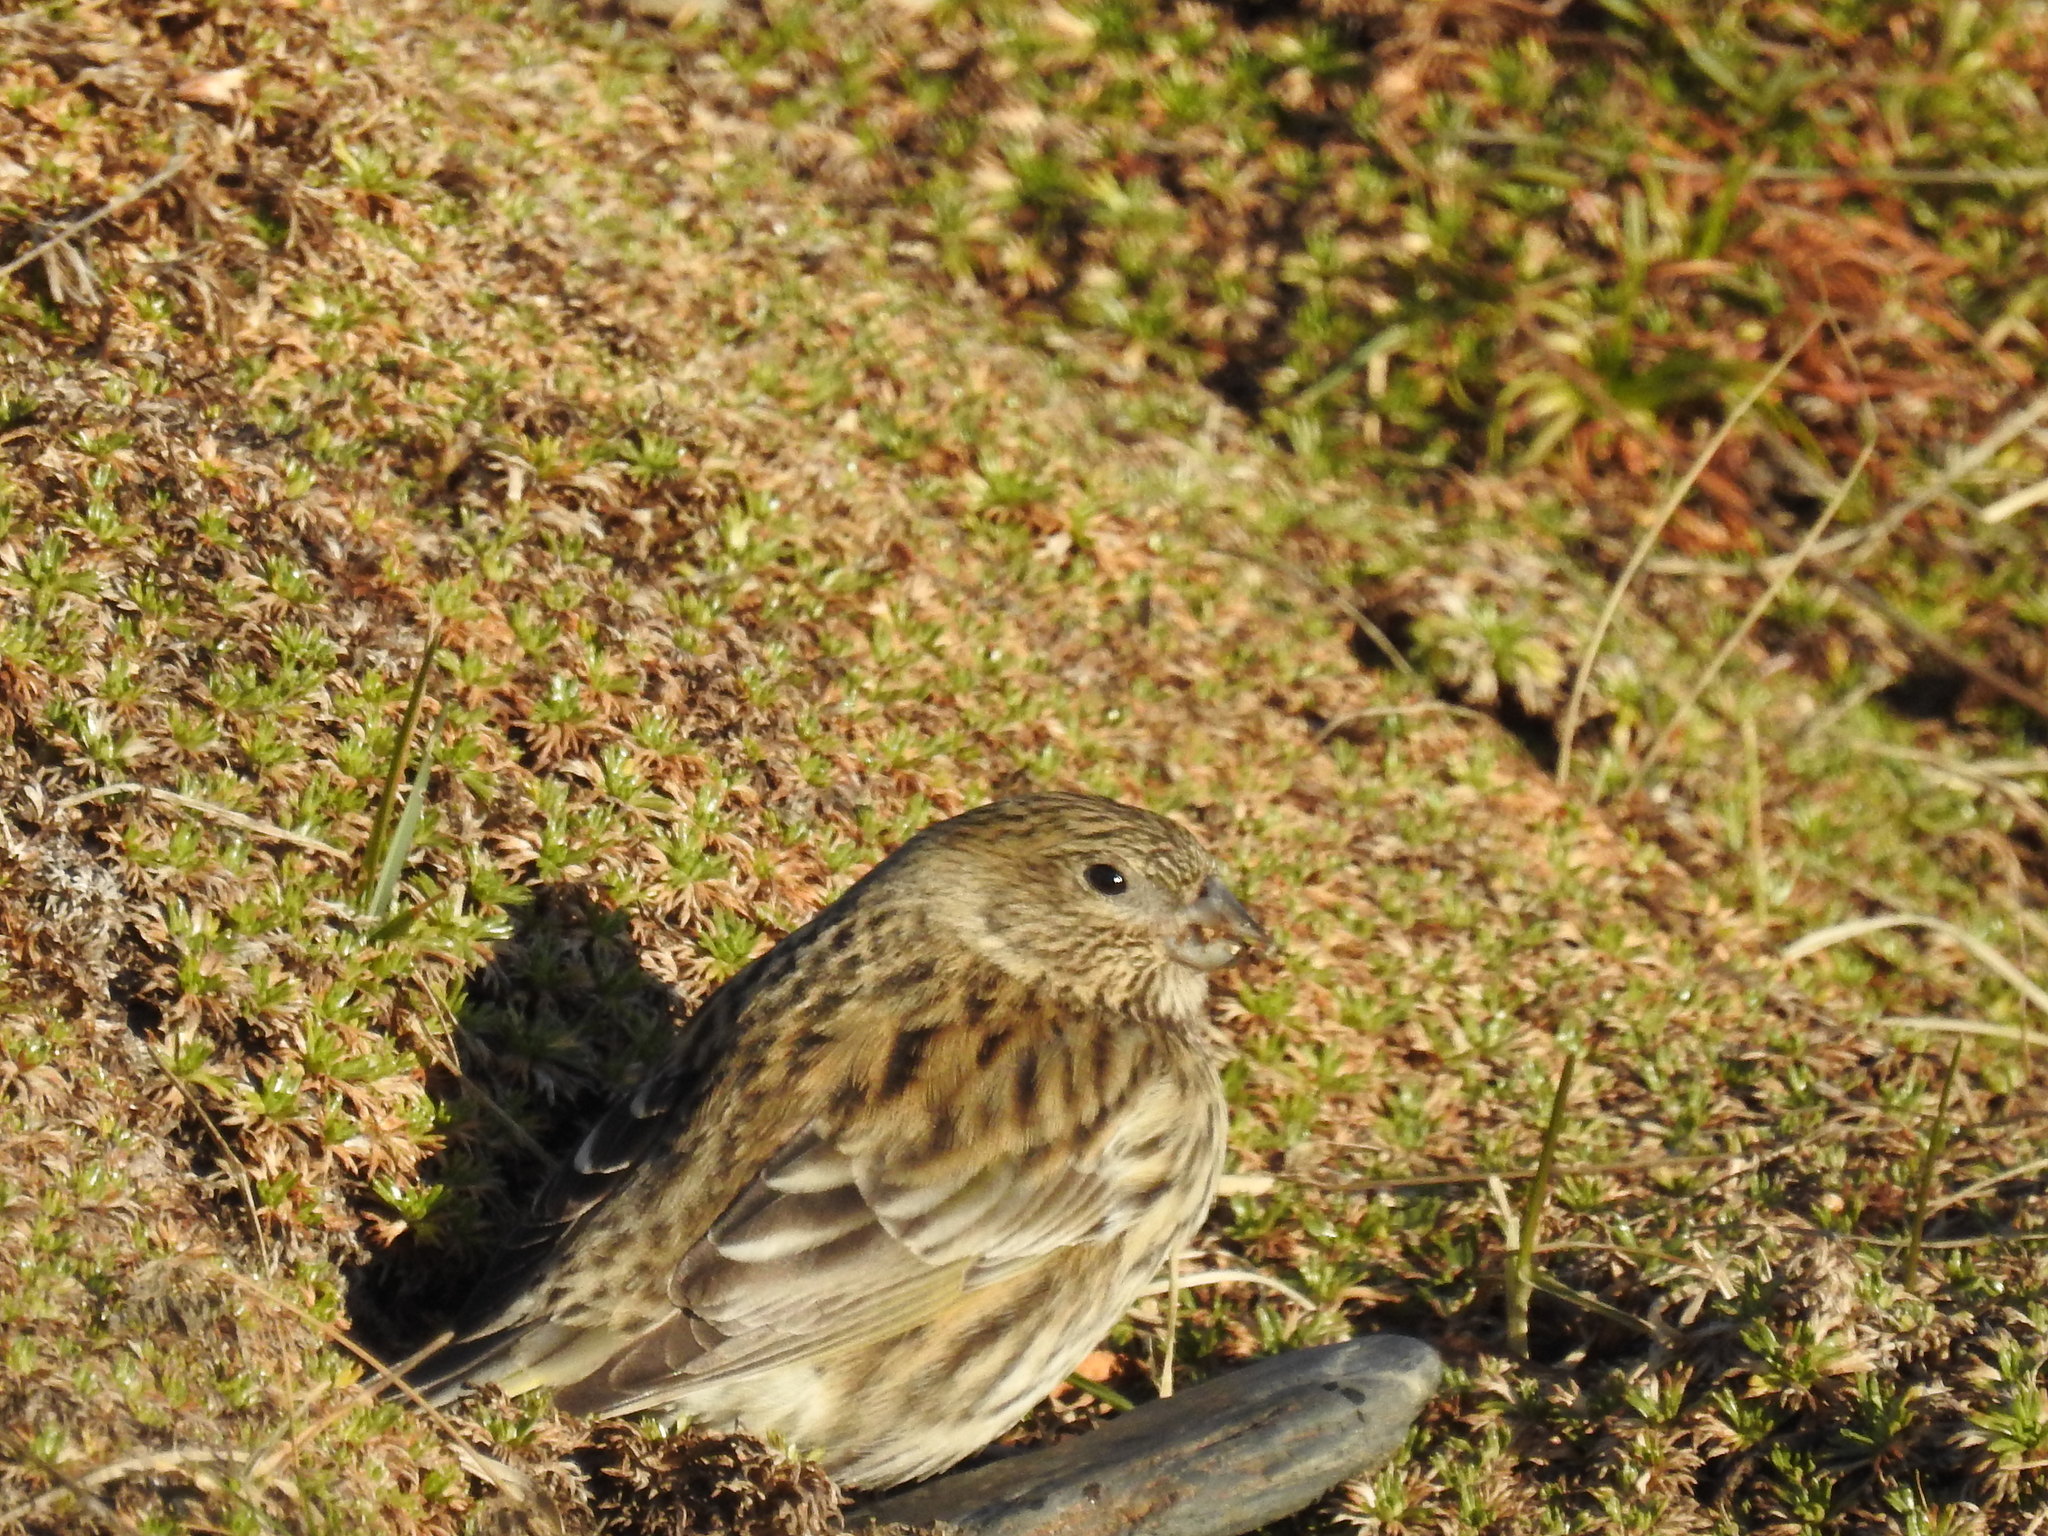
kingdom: Animalia
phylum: Chordata
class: Aves
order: Passeriformes
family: Thraupidae
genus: Melanodera
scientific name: Melanodera xanthogramma
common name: Yellow-bridled finch
